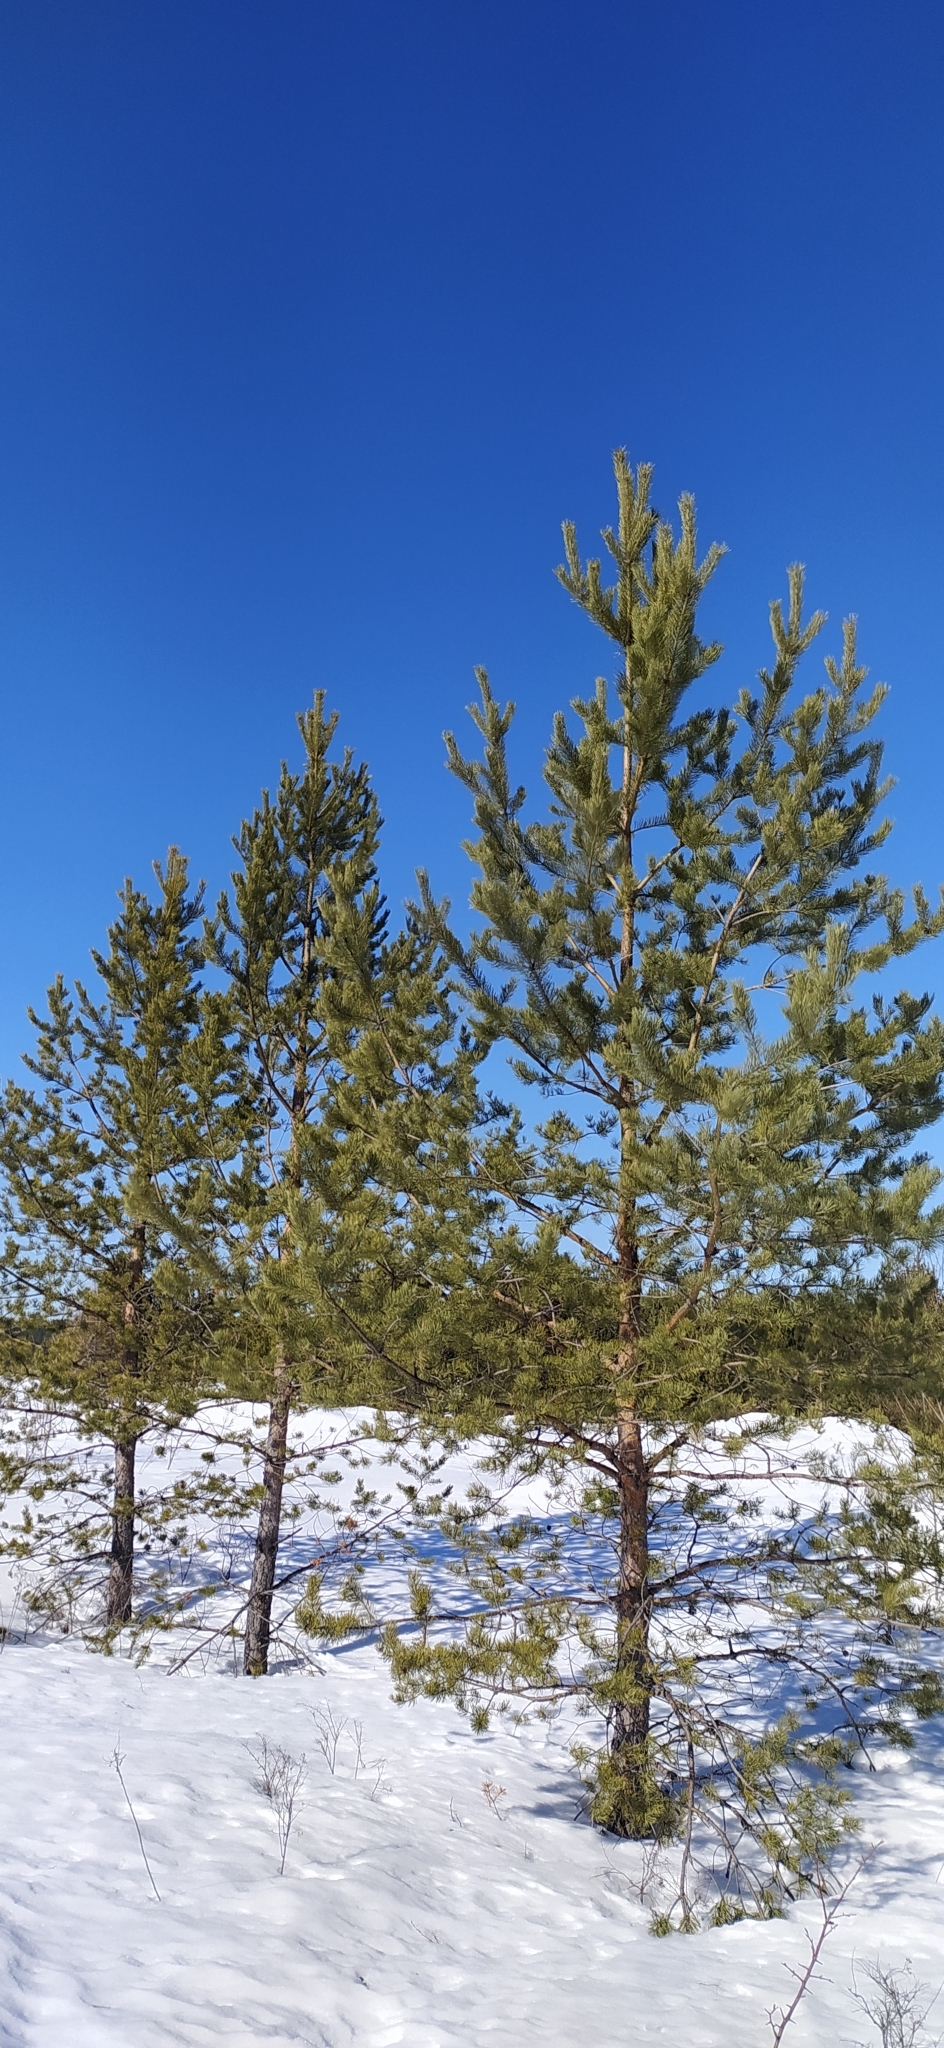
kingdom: Plantae
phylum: Tracheophyta
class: Pinopsida
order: Pinales
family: Pinaceae
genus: Pinus
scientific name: Pinus sylvestris
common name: Scots pine
